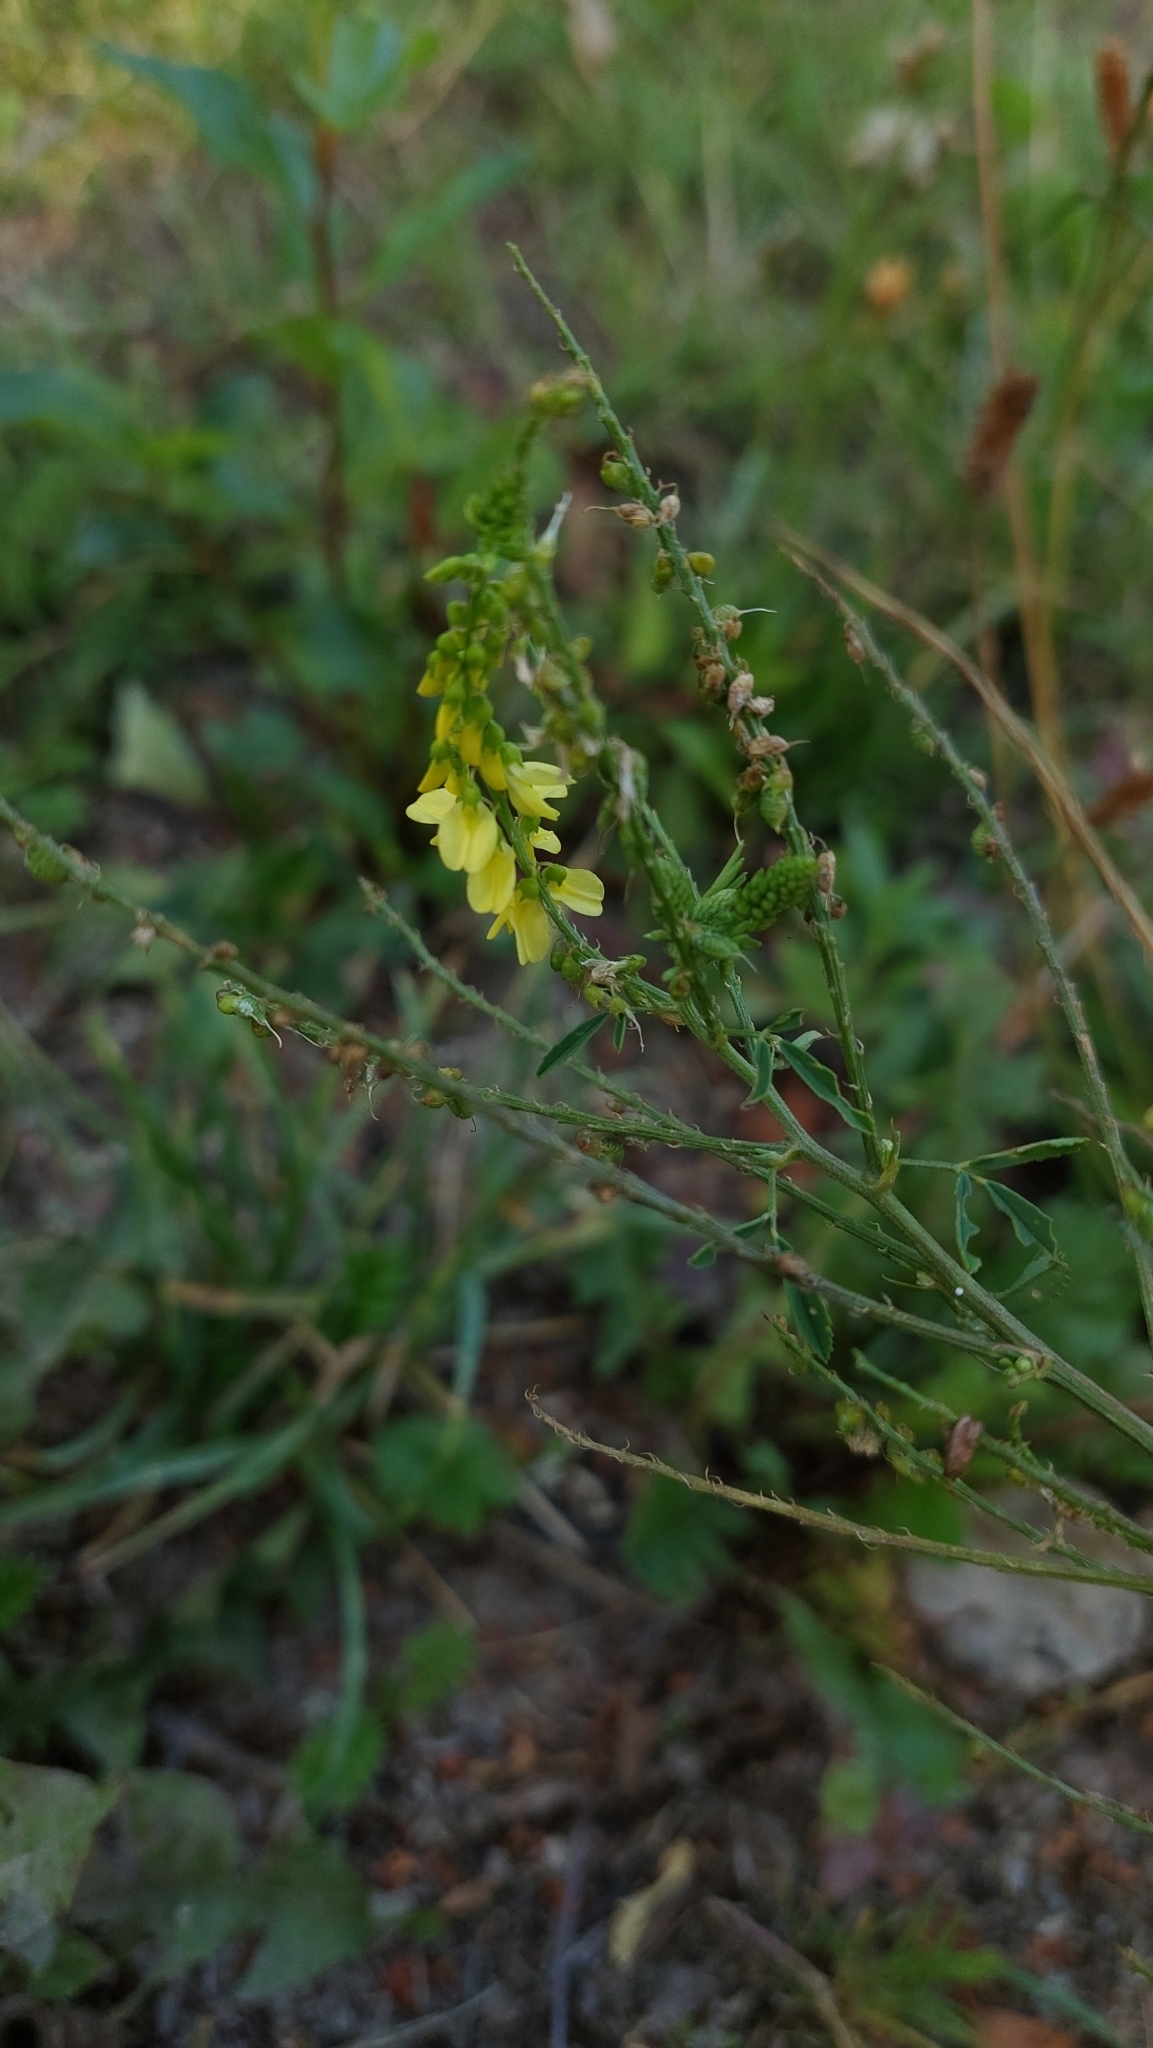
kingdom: Plantae
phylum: Tracheophyta
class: Magnoliopsida
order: Fabales
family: Fabaceae
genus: Melilotus
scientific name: Melilotus officinalis
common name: Sweetclover
